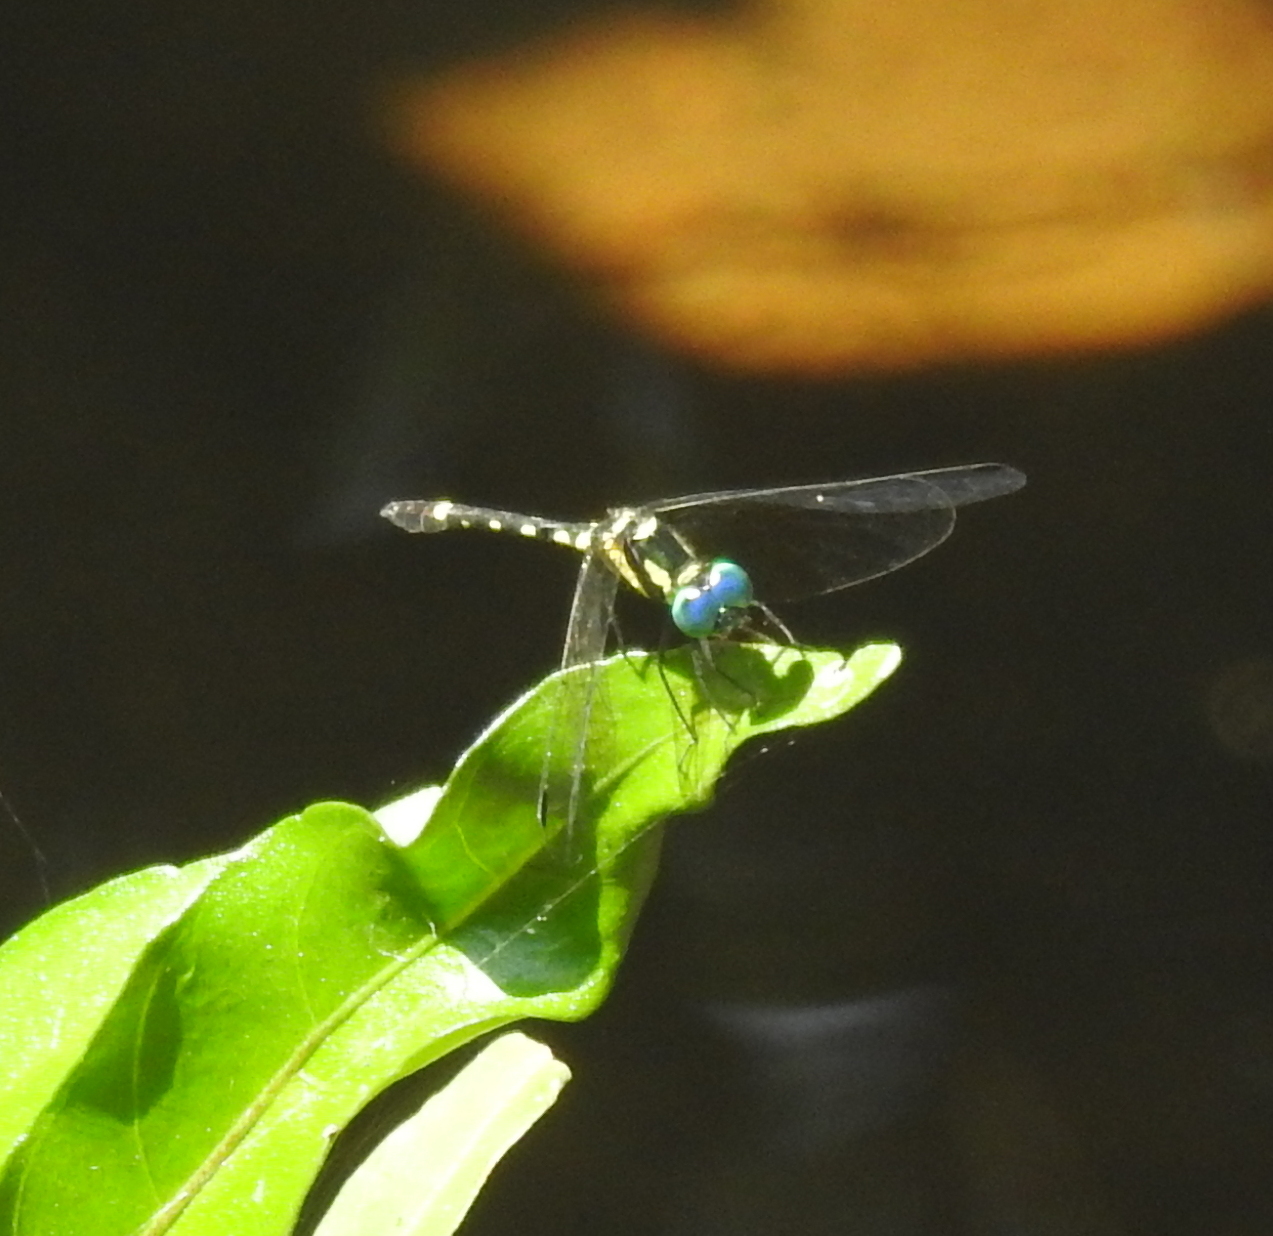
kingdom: Animalia
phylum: Arthropoda
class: Insecta
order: Odonata
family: Libellulidae
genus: Tetrathemis
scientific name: Tetrathemis platyptera
